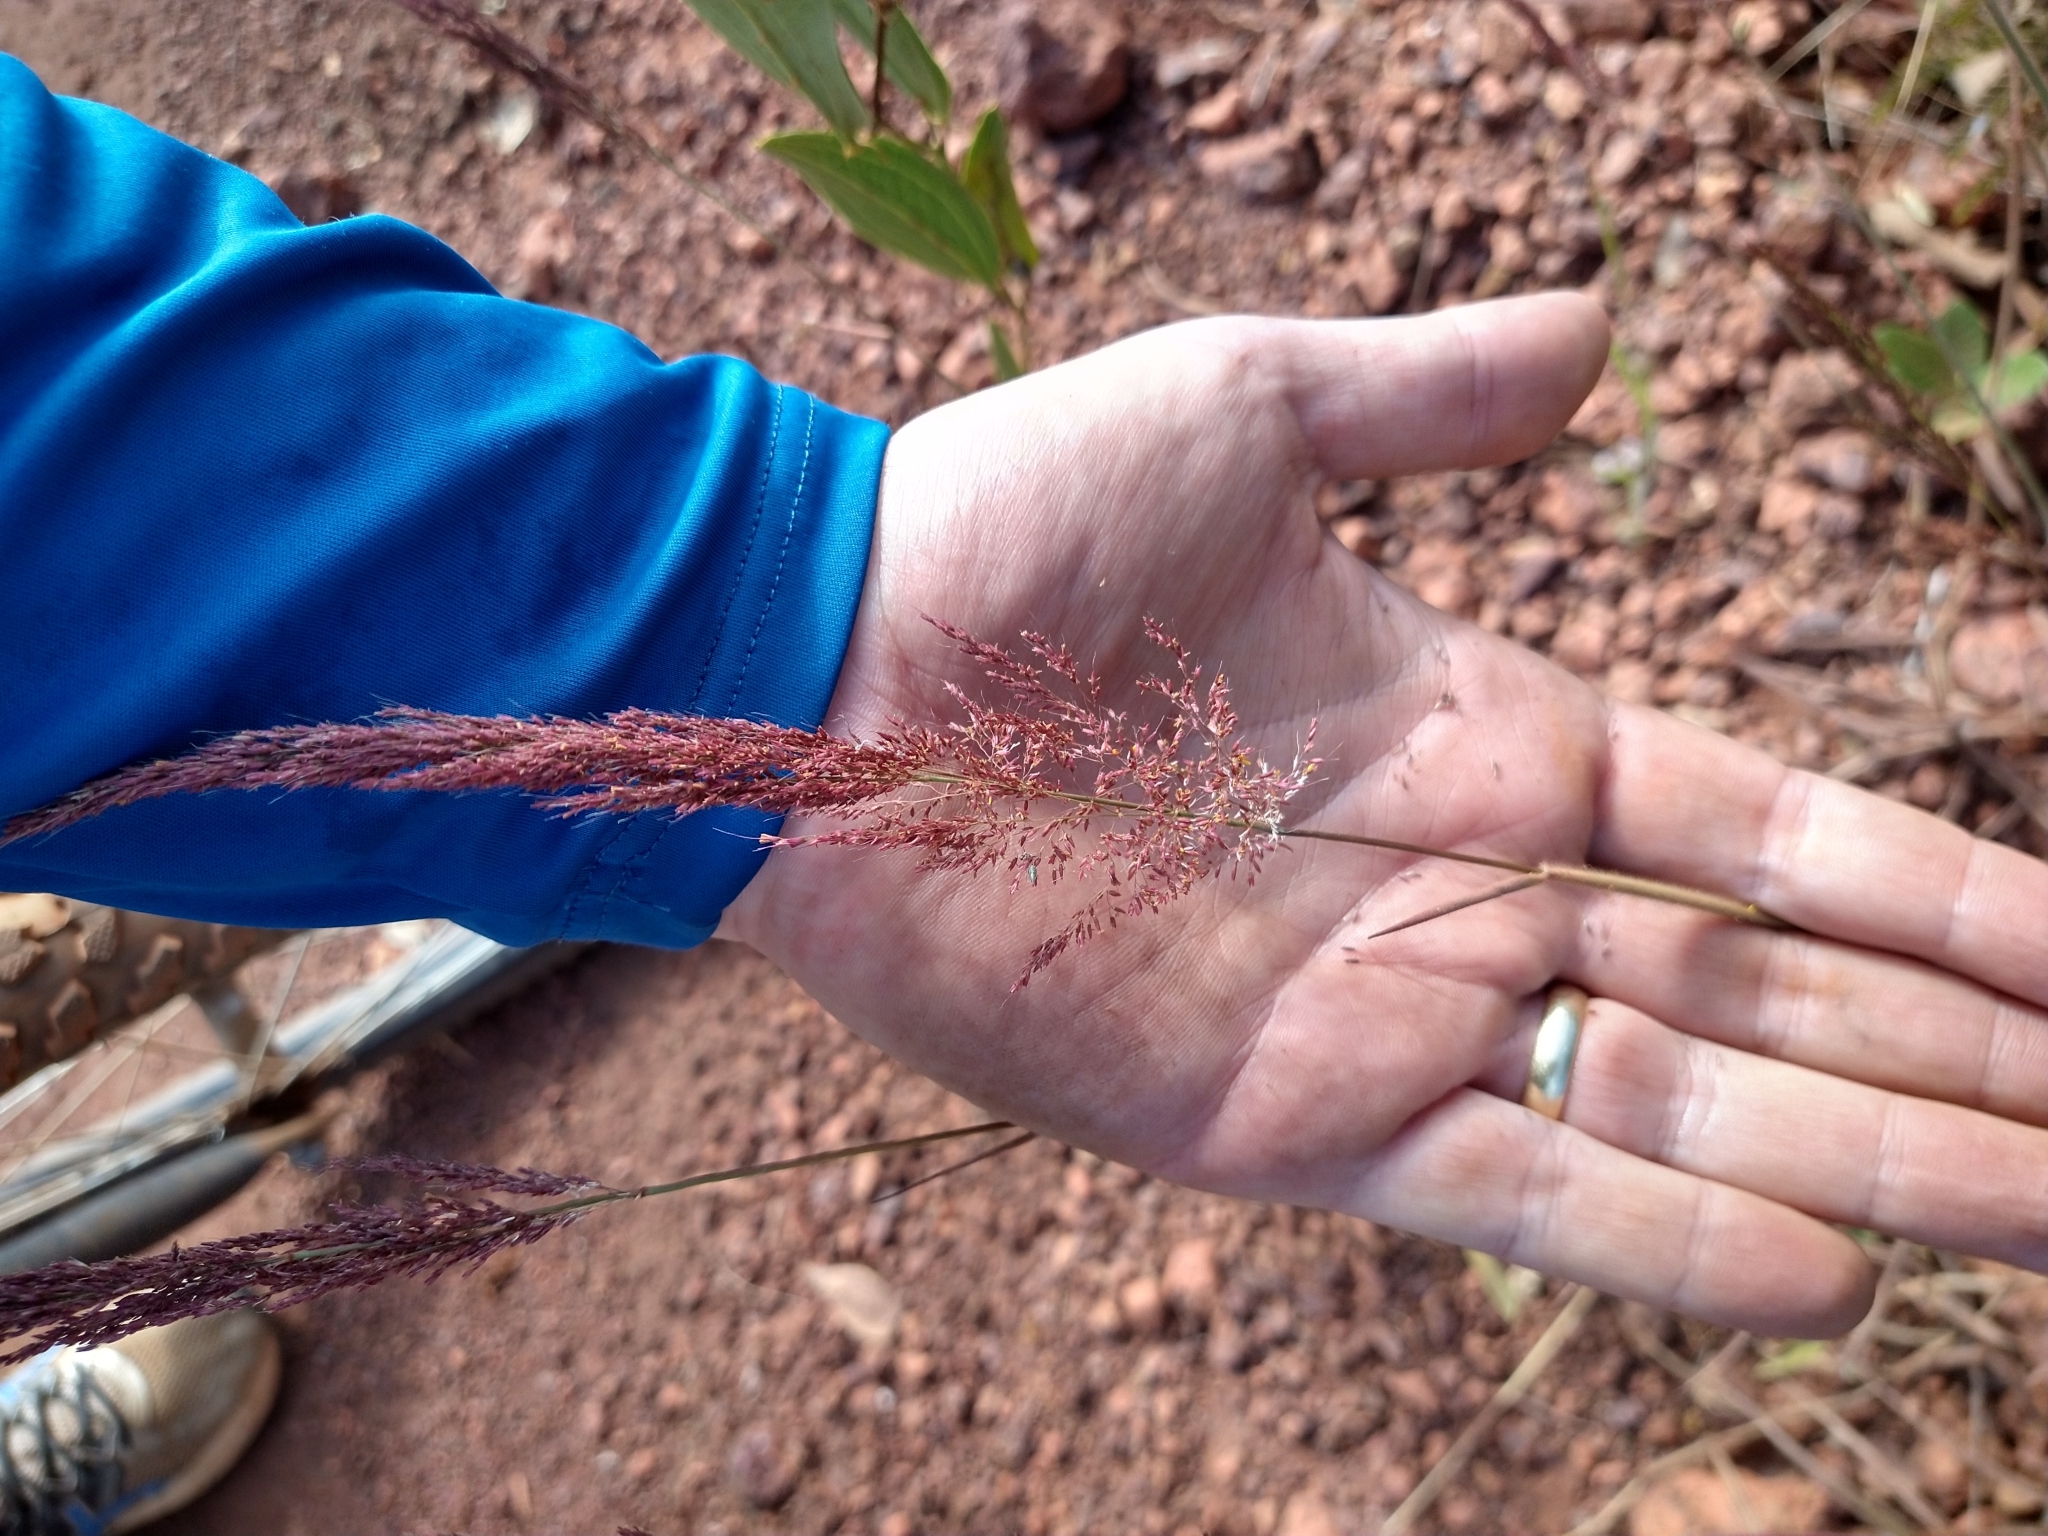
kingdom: Plantae
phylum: Tracheophyta
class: Liliopsida
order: Poales
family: Poaceae
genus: Melinis
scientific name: Melinis minutiflora
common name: Molassesgrass
